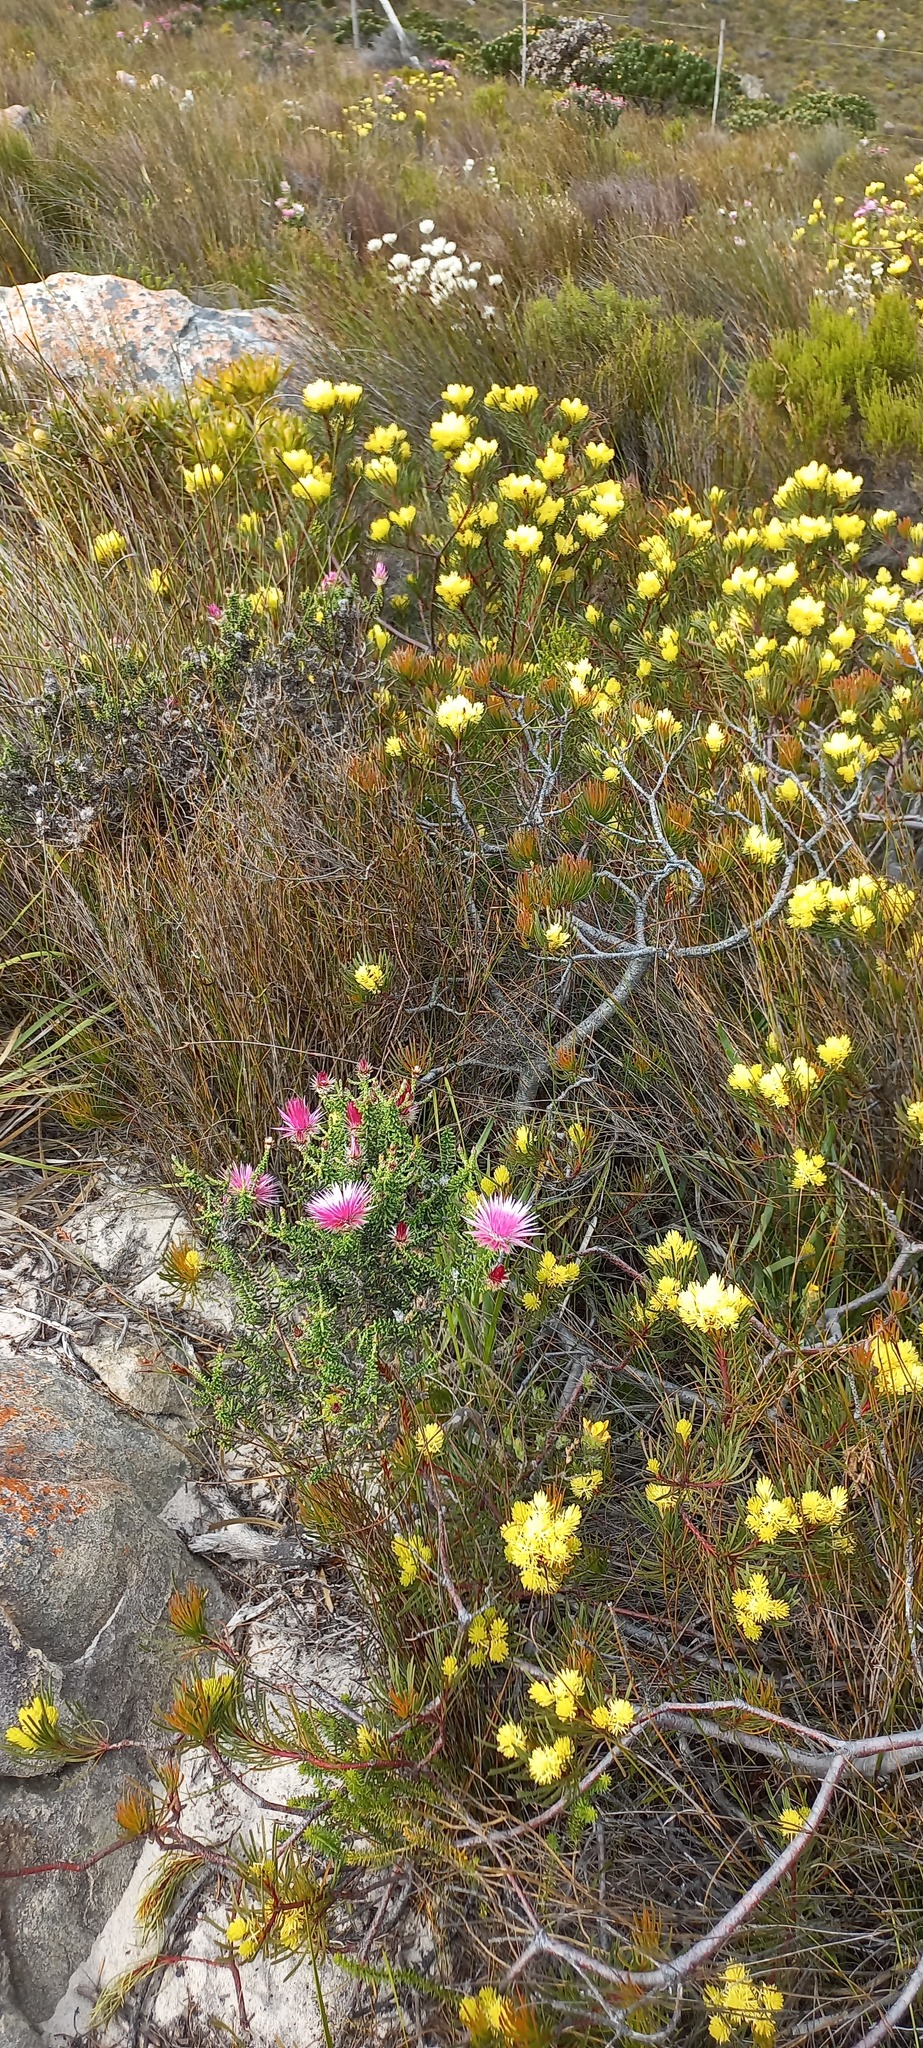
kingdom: Plantae
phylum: Tracheophyta
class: Magnoliopsida
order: Proteales
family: Proteaceae
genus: Aulax
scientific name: Aulax cancellata
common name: Channel-leaf featherbush
